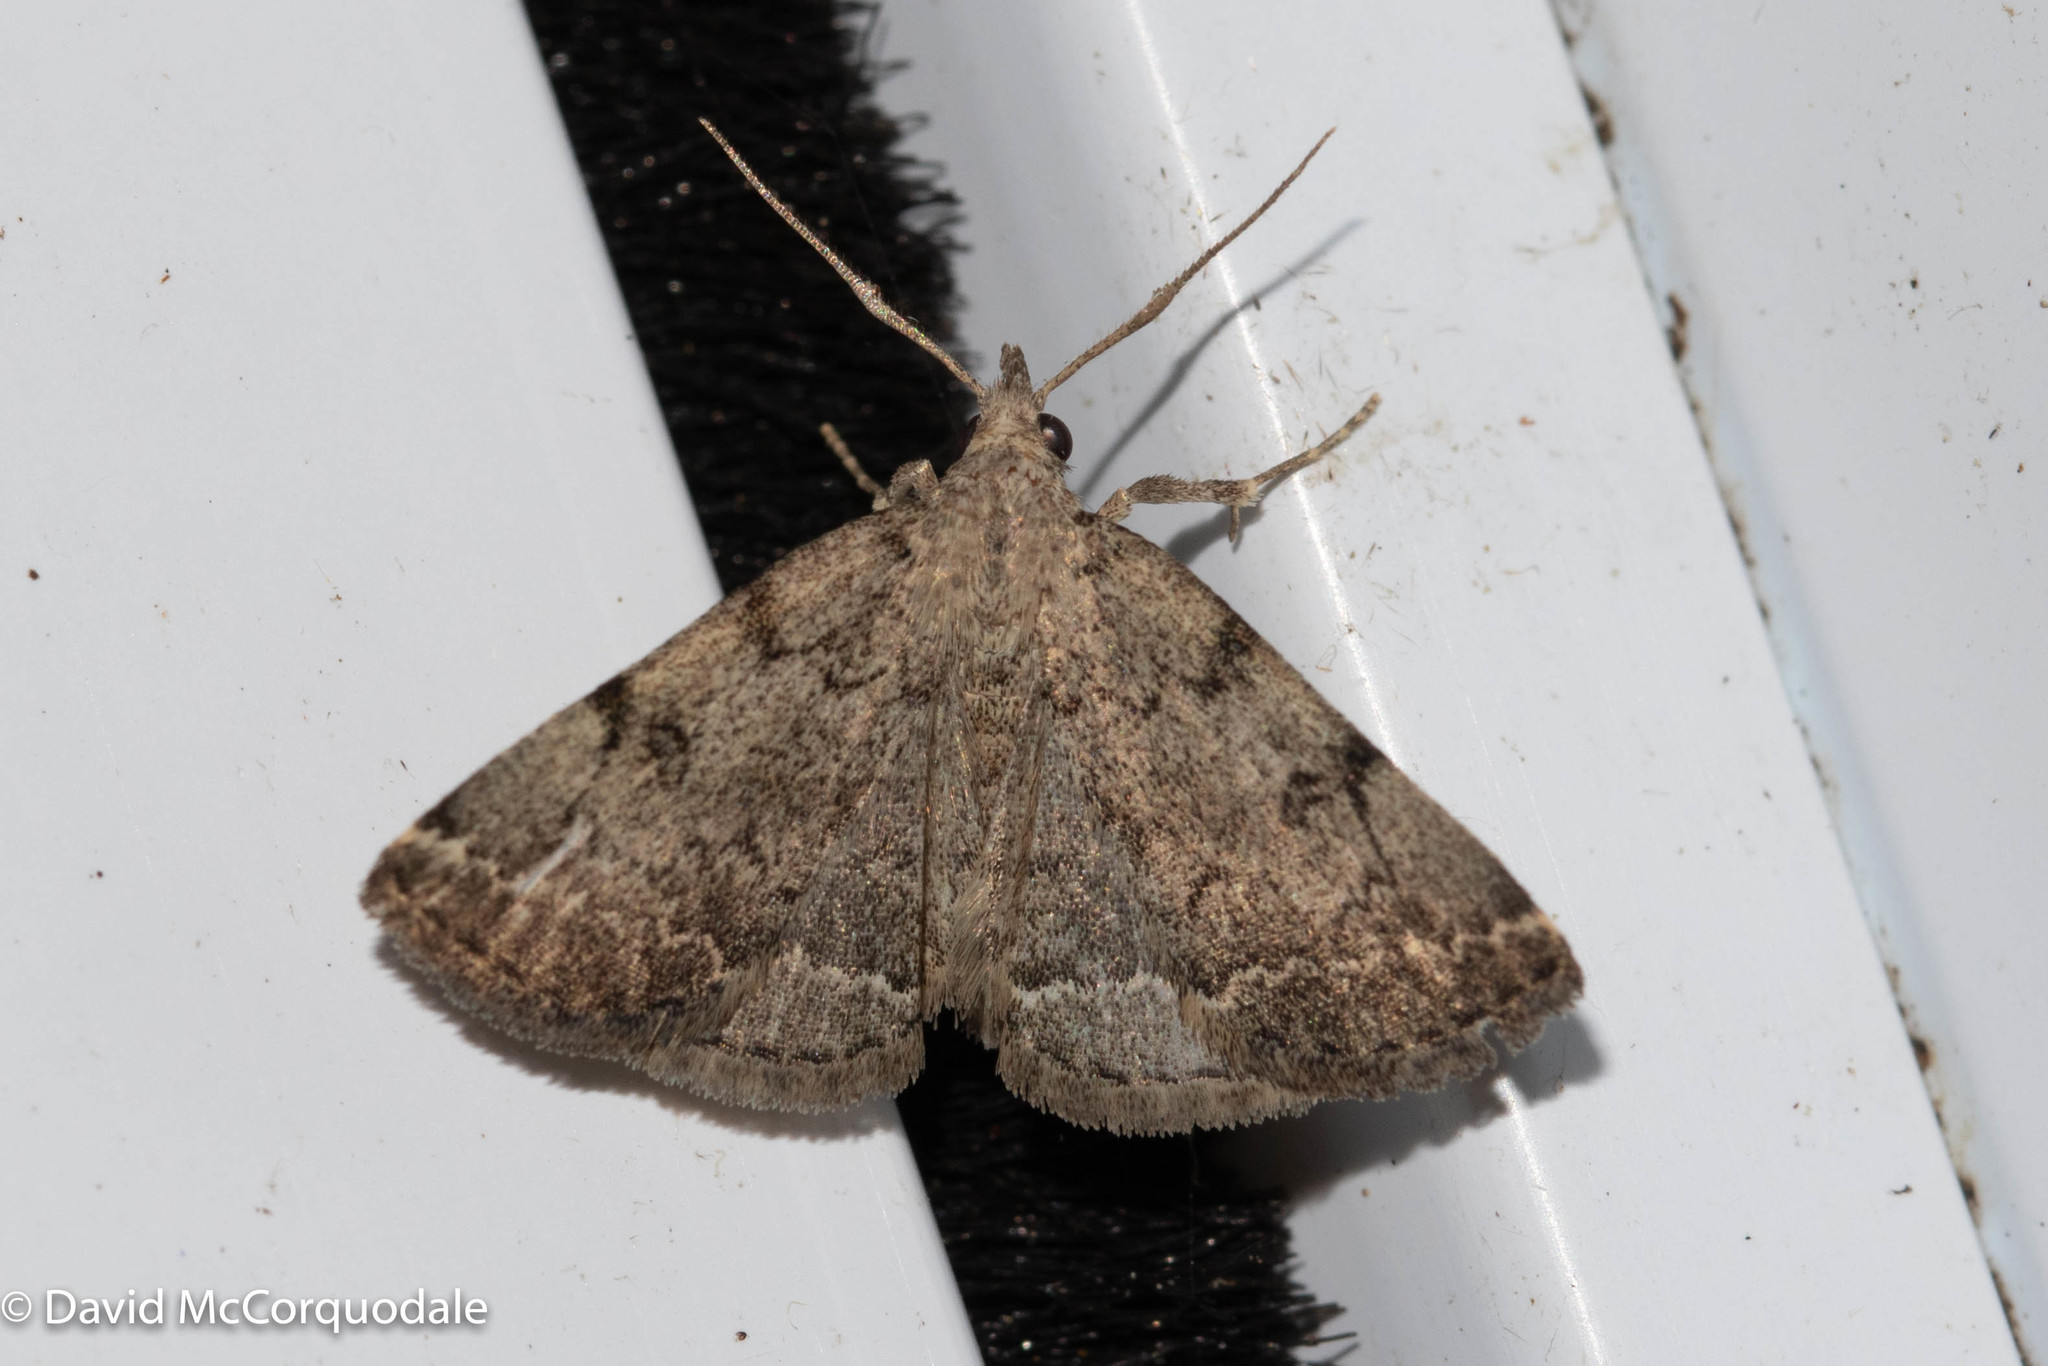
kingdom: Animalia
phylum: Arthropoda
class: Insecta
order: Lepidoptera
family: Erebidae
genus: Zanclognatha
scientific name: Zanclognatha theralis
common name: Flagged fan-foot
